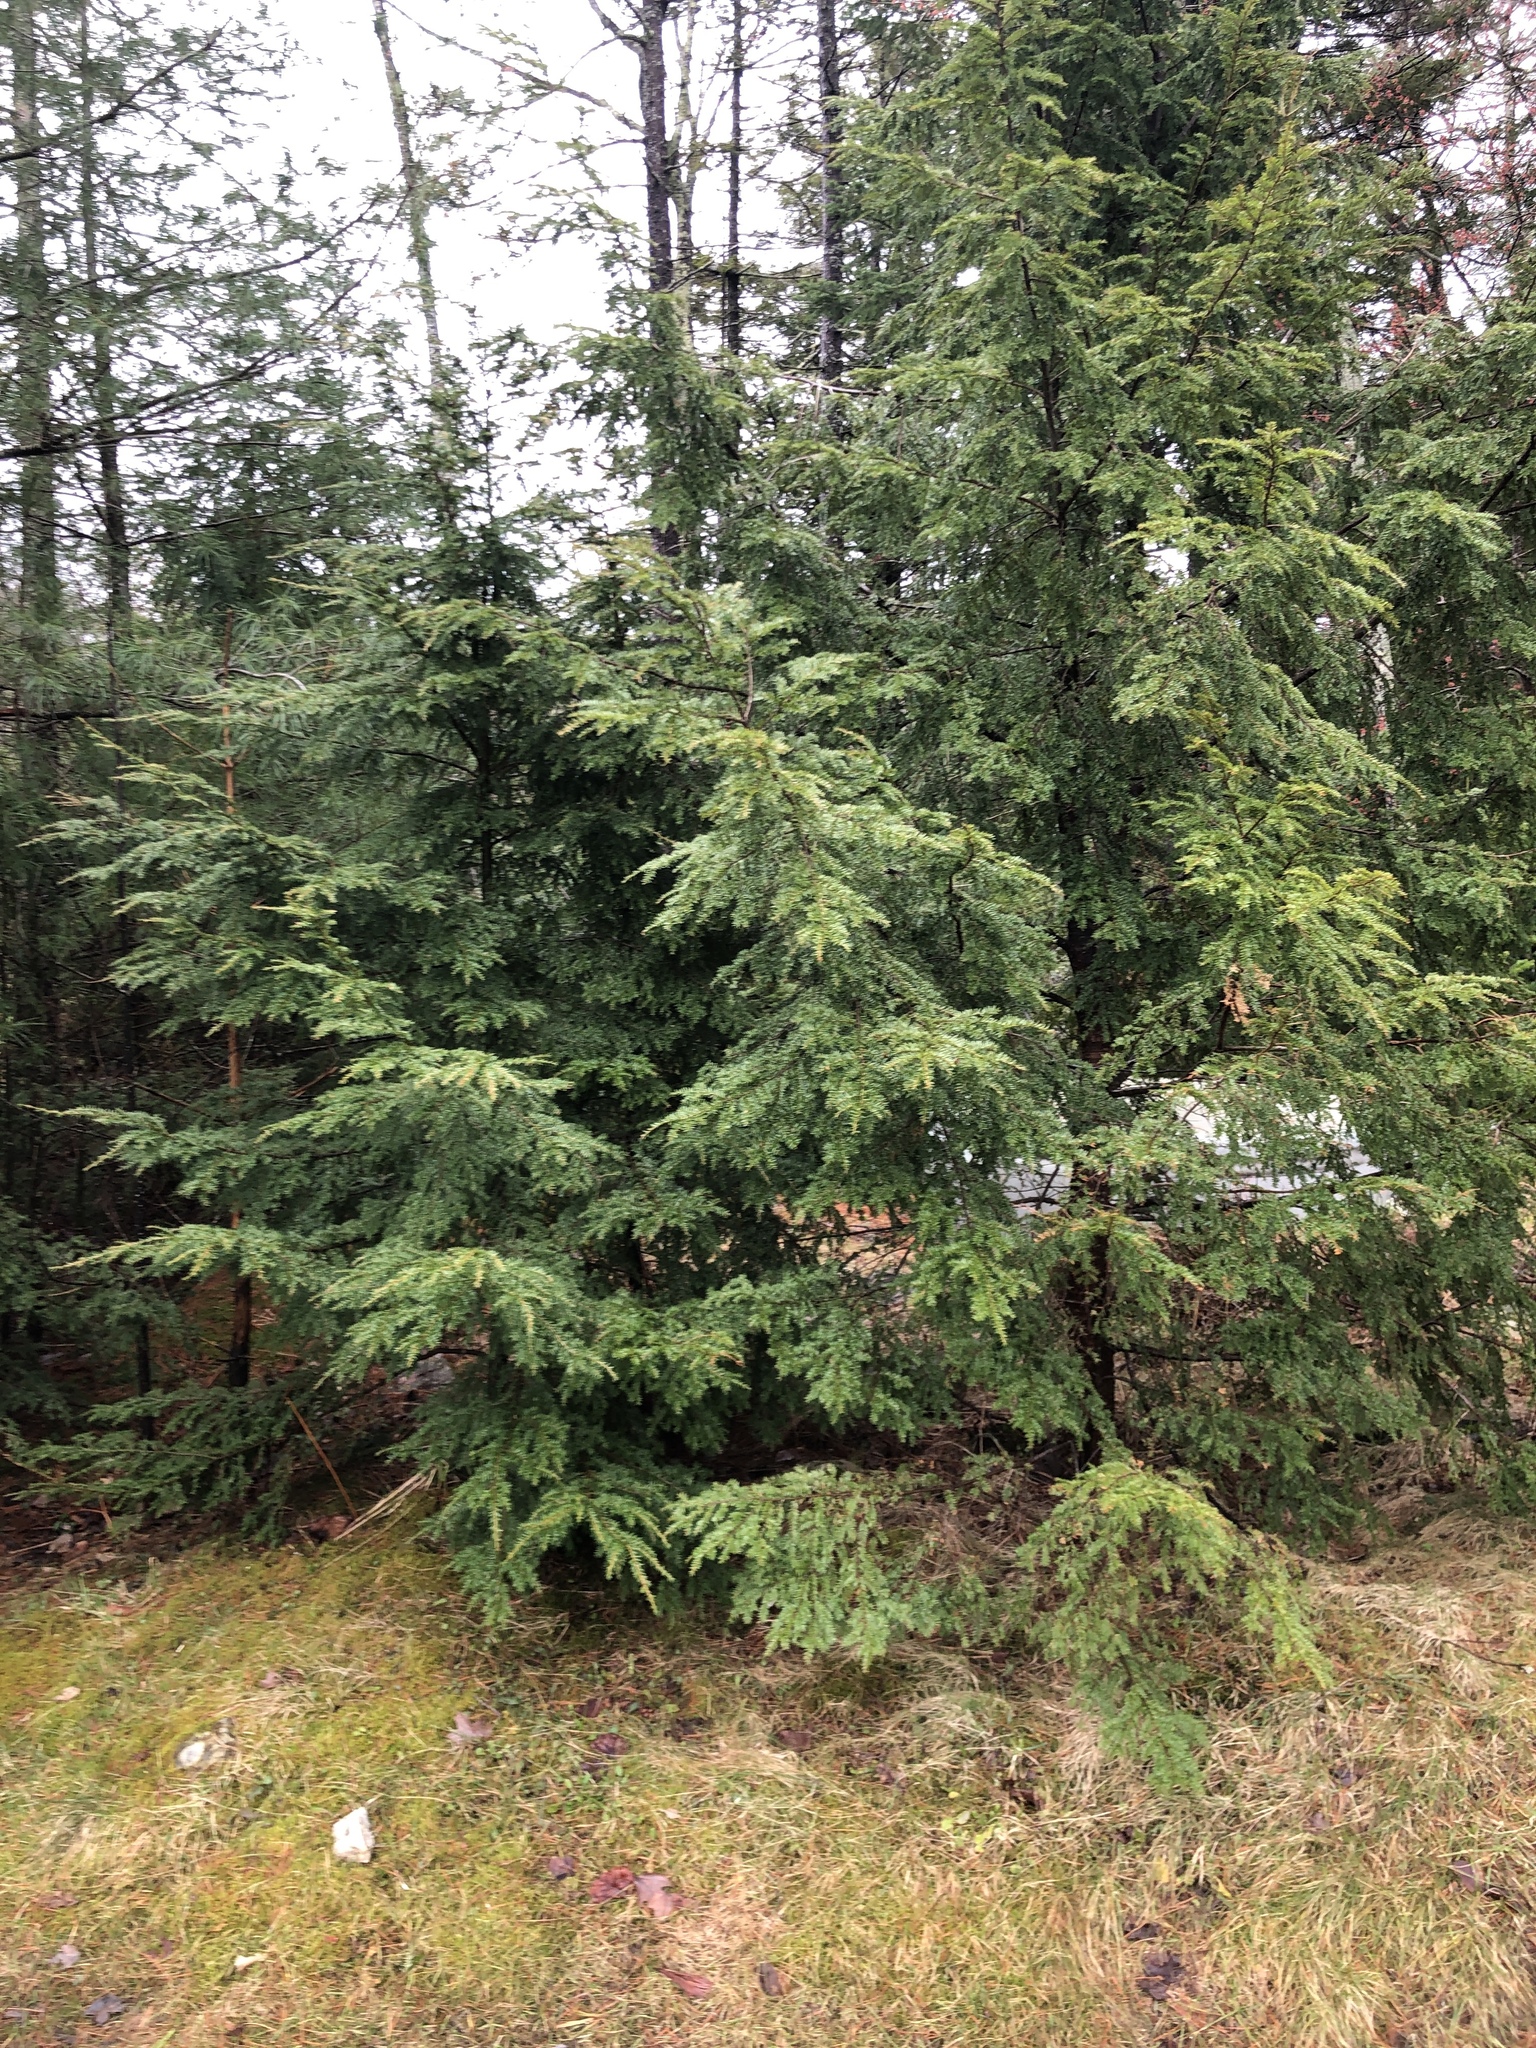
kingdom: Plantae
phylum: Tracheophyta
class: Pinopsida
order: Pinales
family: Pinaceae
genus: Tsuga
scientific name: Tsuga canadensis
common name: Eastern hemlock
